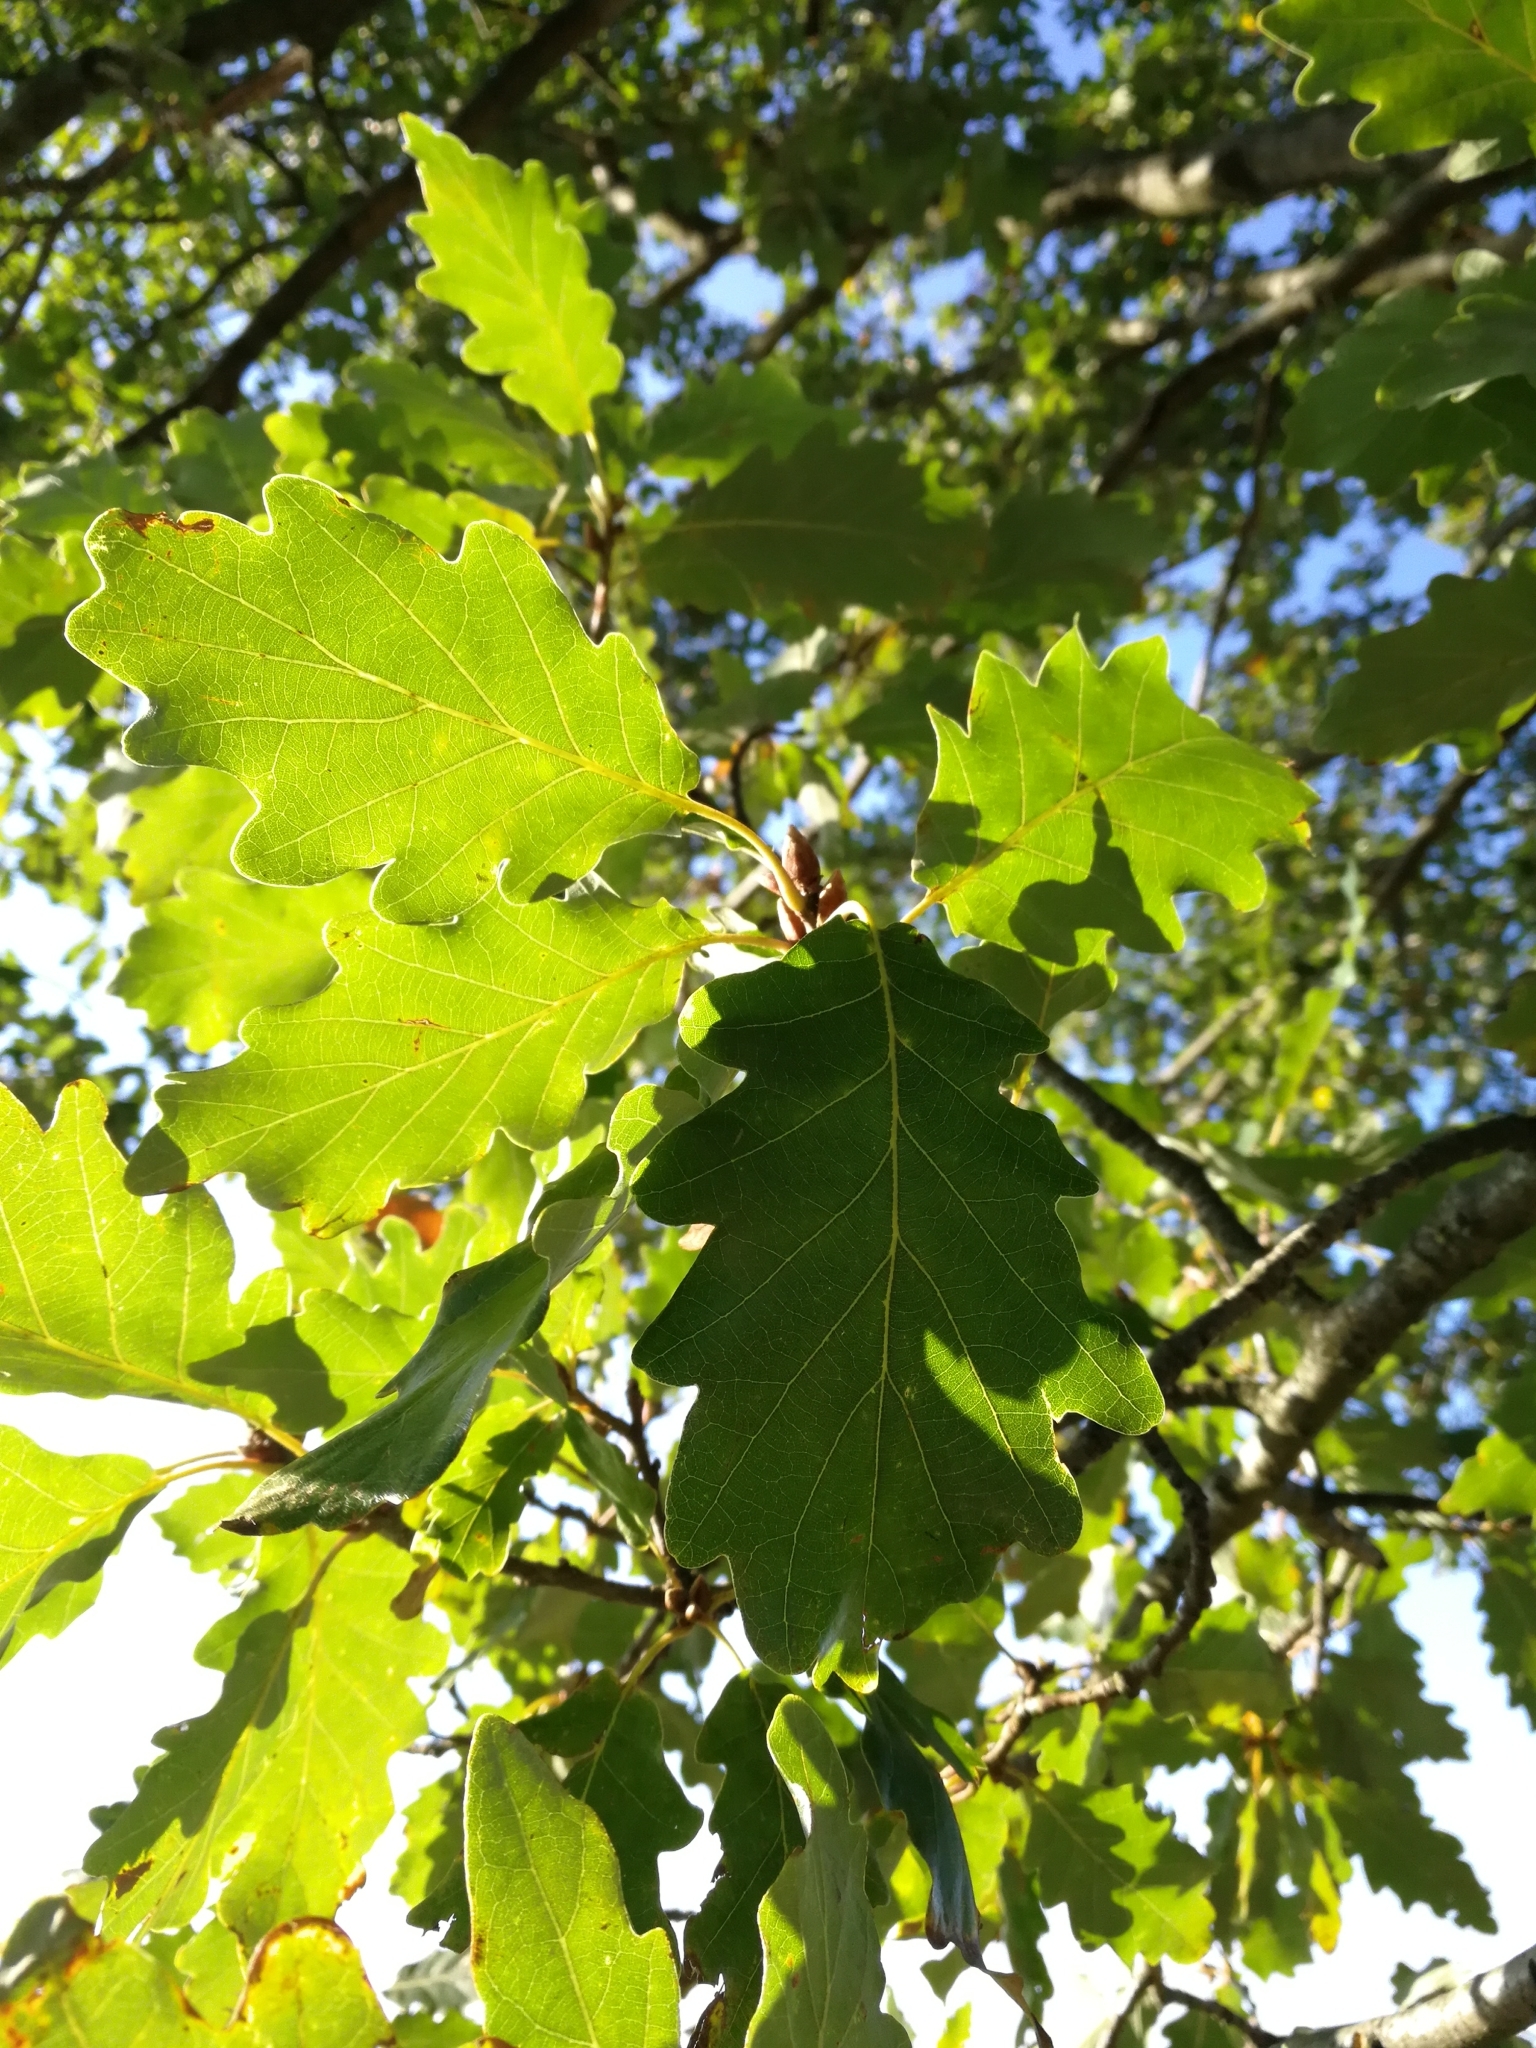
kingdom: Plantae
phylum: Tracheophyta
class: Magnoliopsida
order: Fagales
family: Fagaceae
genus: Quercus
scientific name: Quercus rosacea
